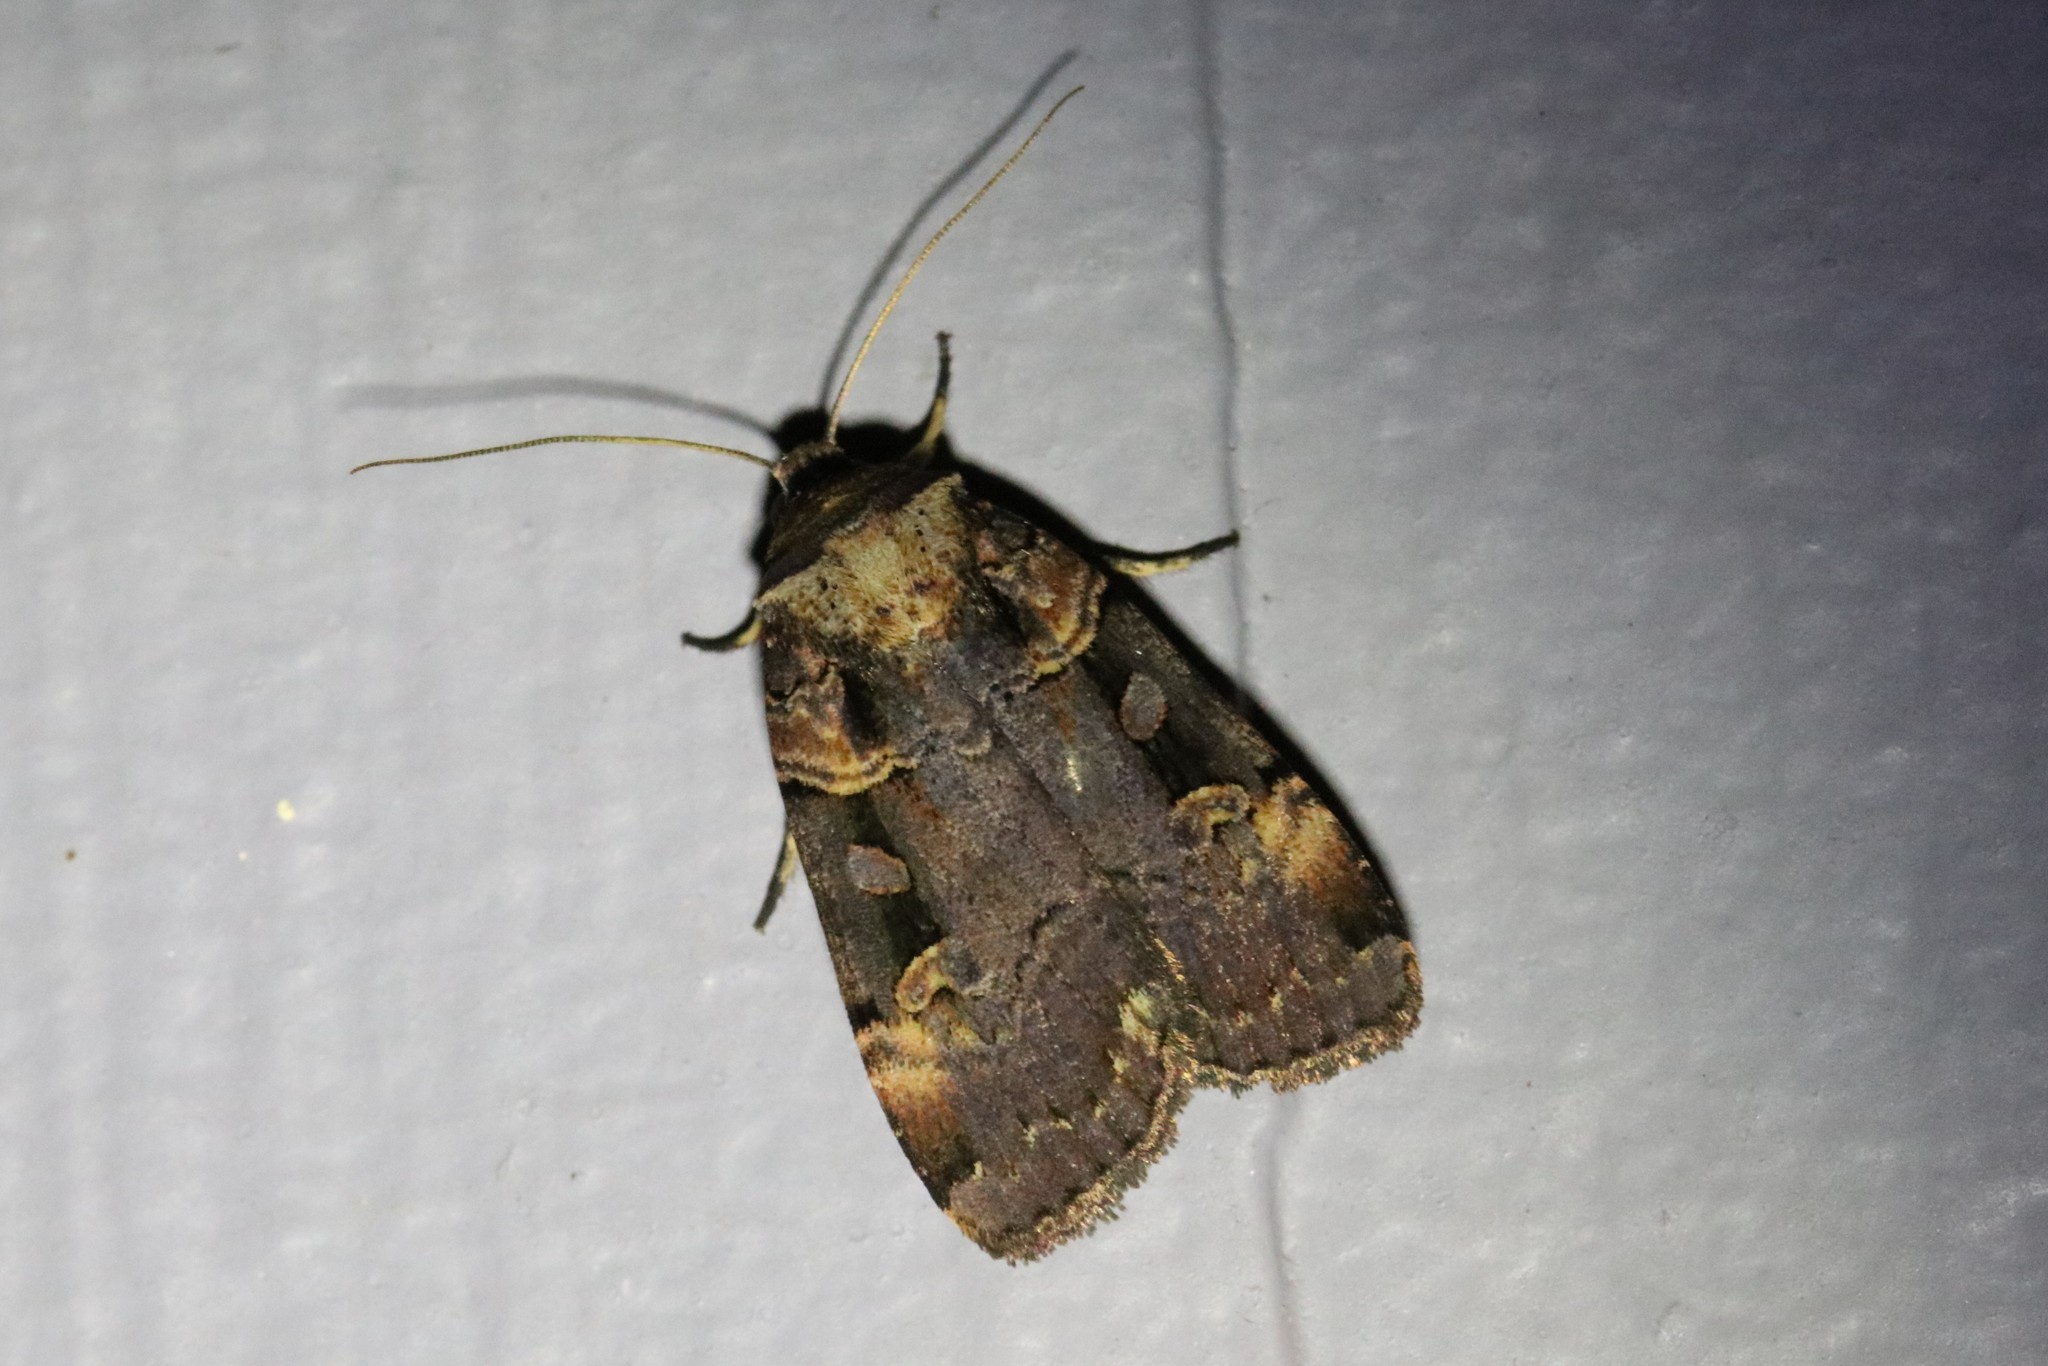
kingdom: Animalia
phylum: Arthropoda
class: Insecta
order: Lepidoptera
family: Noctuidae
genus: Pseudohermonassa
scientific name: Pseudohermonassa bicarnea
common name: Pink spotted dart
